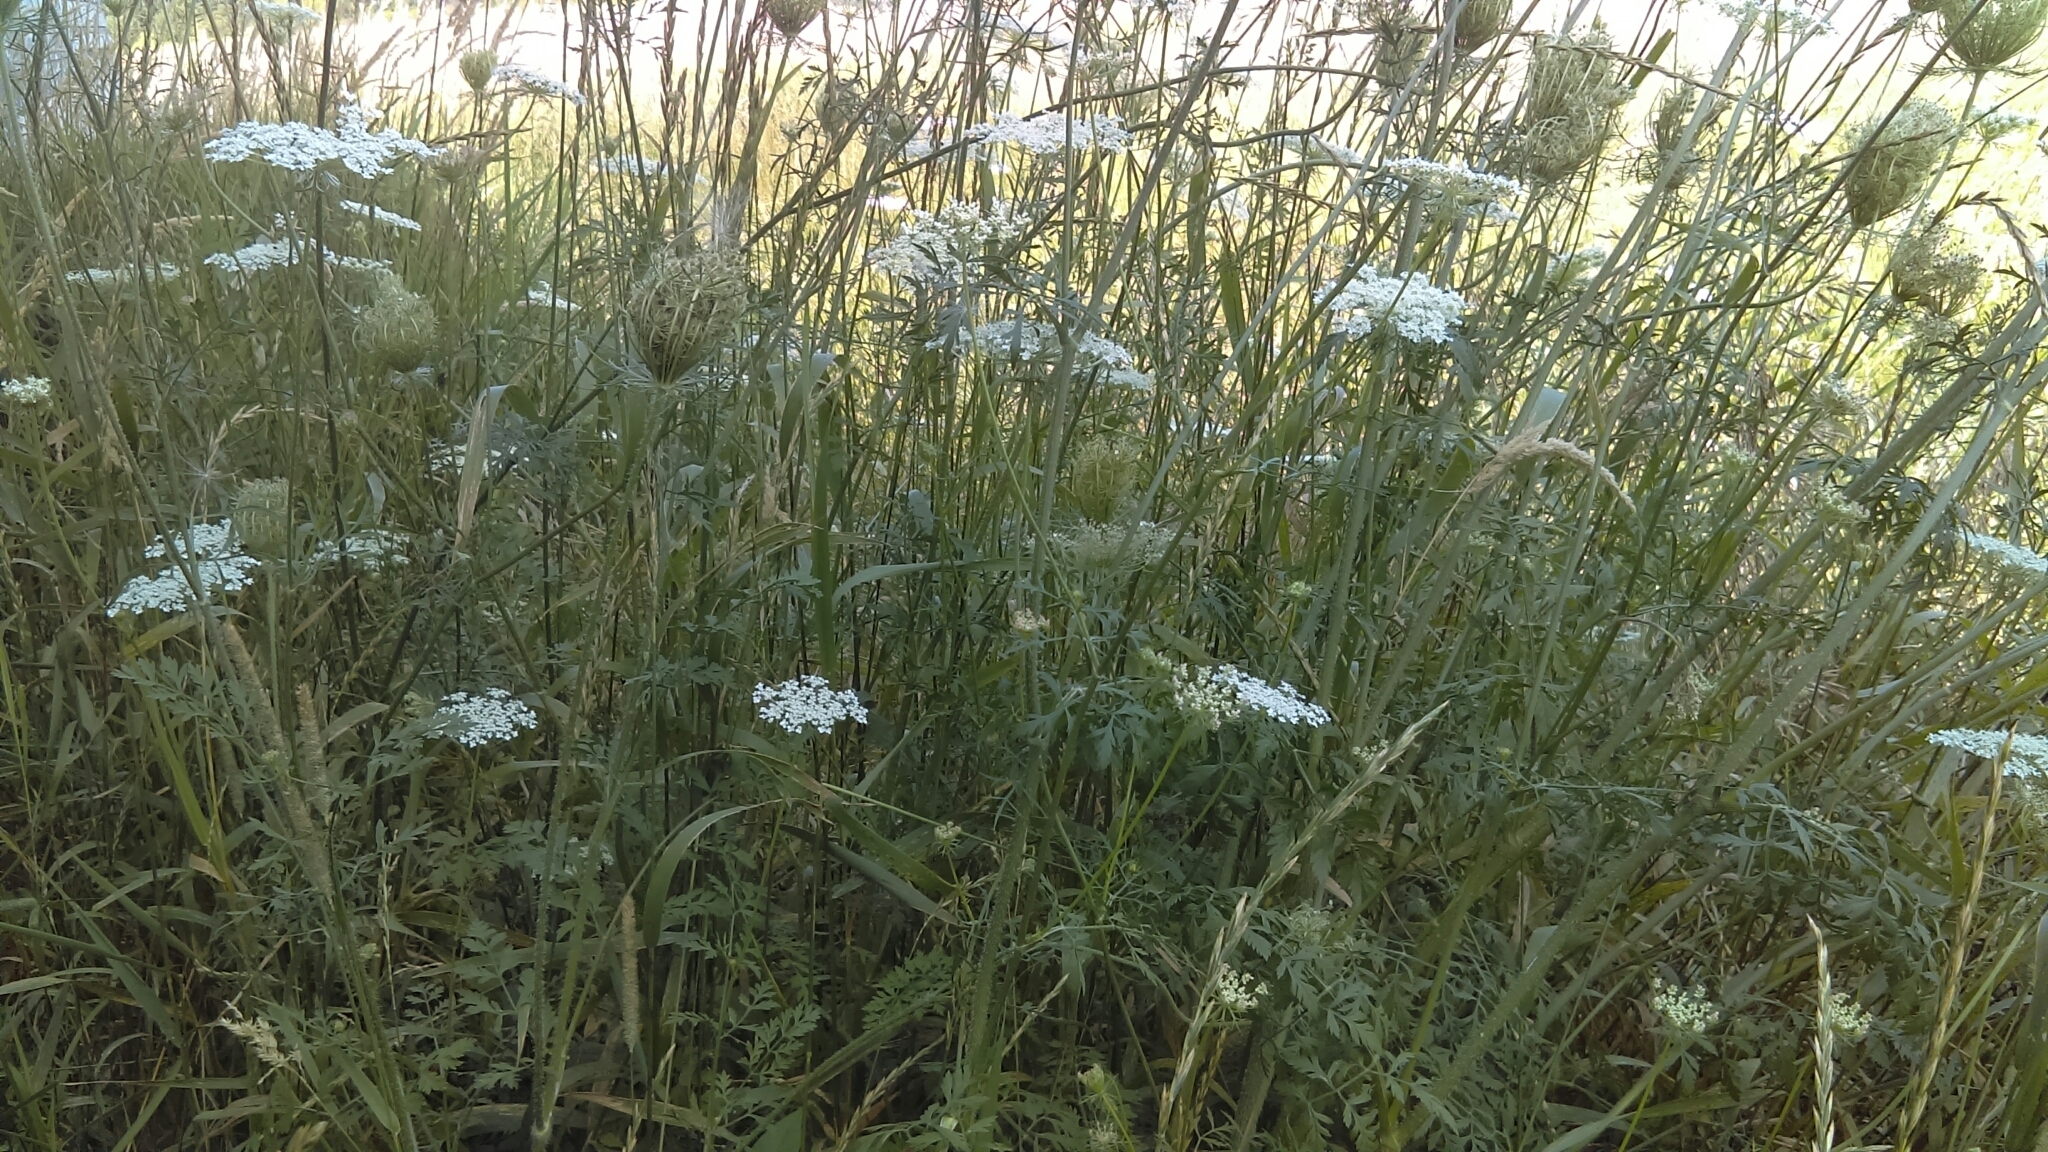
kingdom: Plantae
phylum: Tracheophyta
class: Magnoliopsida
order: Apiales
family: Apiaceae
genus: Daucus
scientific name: Daucus carota
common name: Wild carrot
